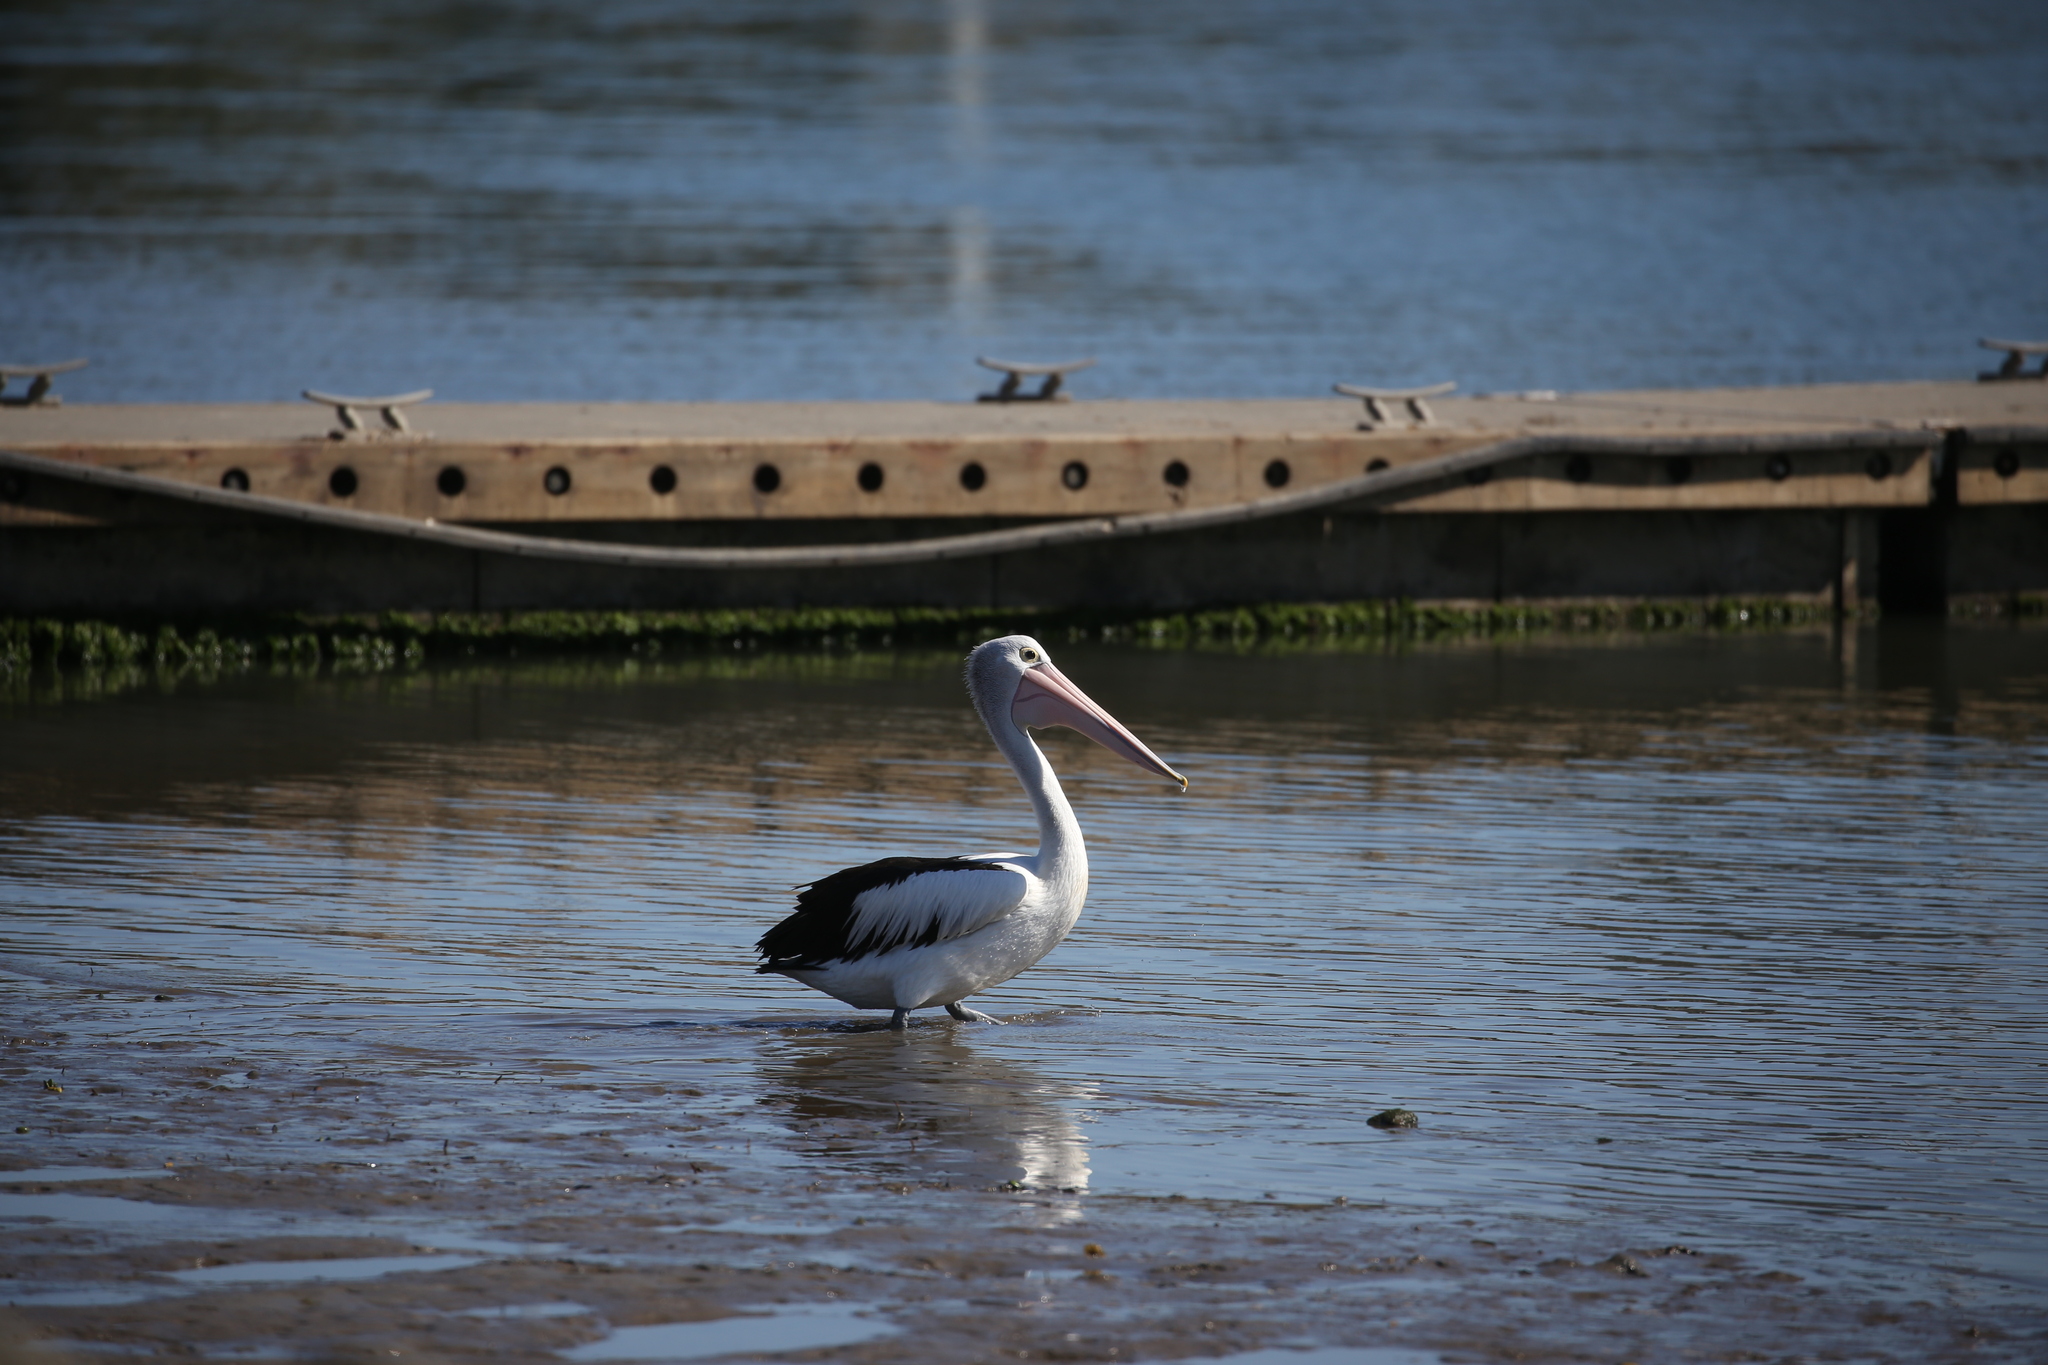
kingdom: Animalia
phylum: Chordata
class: Aves
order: Pelecaniformes
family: Pelecanidae
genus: Pelecanus
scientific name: Pelecanus conspicillatus
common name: Australian pelican
